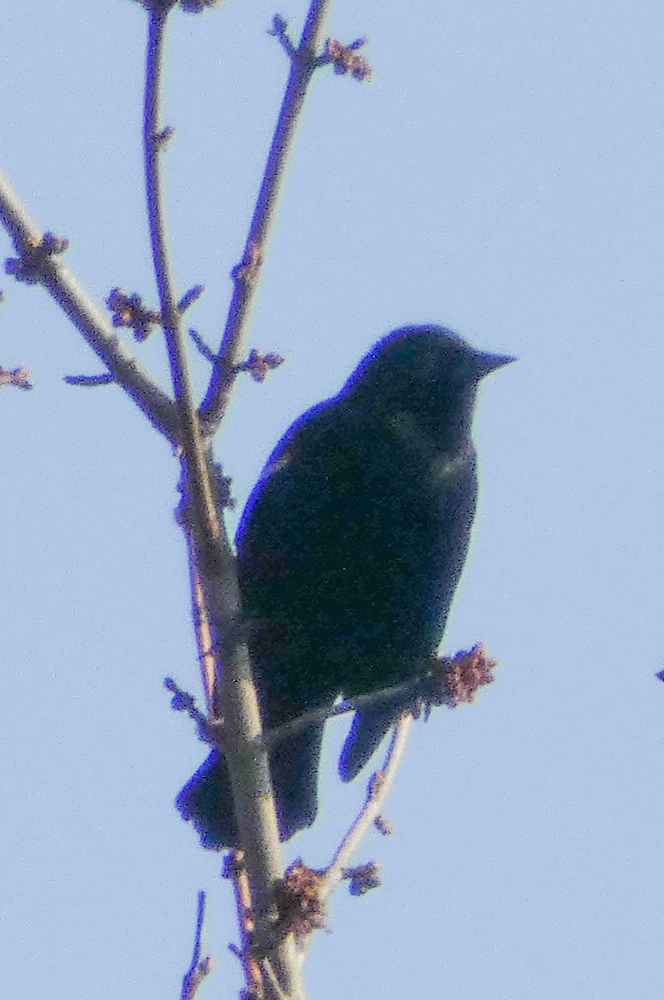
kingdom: Animalia
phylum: Chordata
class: Aves
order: Passeriformes
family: Icteridae
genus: Agelaius
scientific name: Agelaius phoeniceus
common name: Red-winged blackbird
